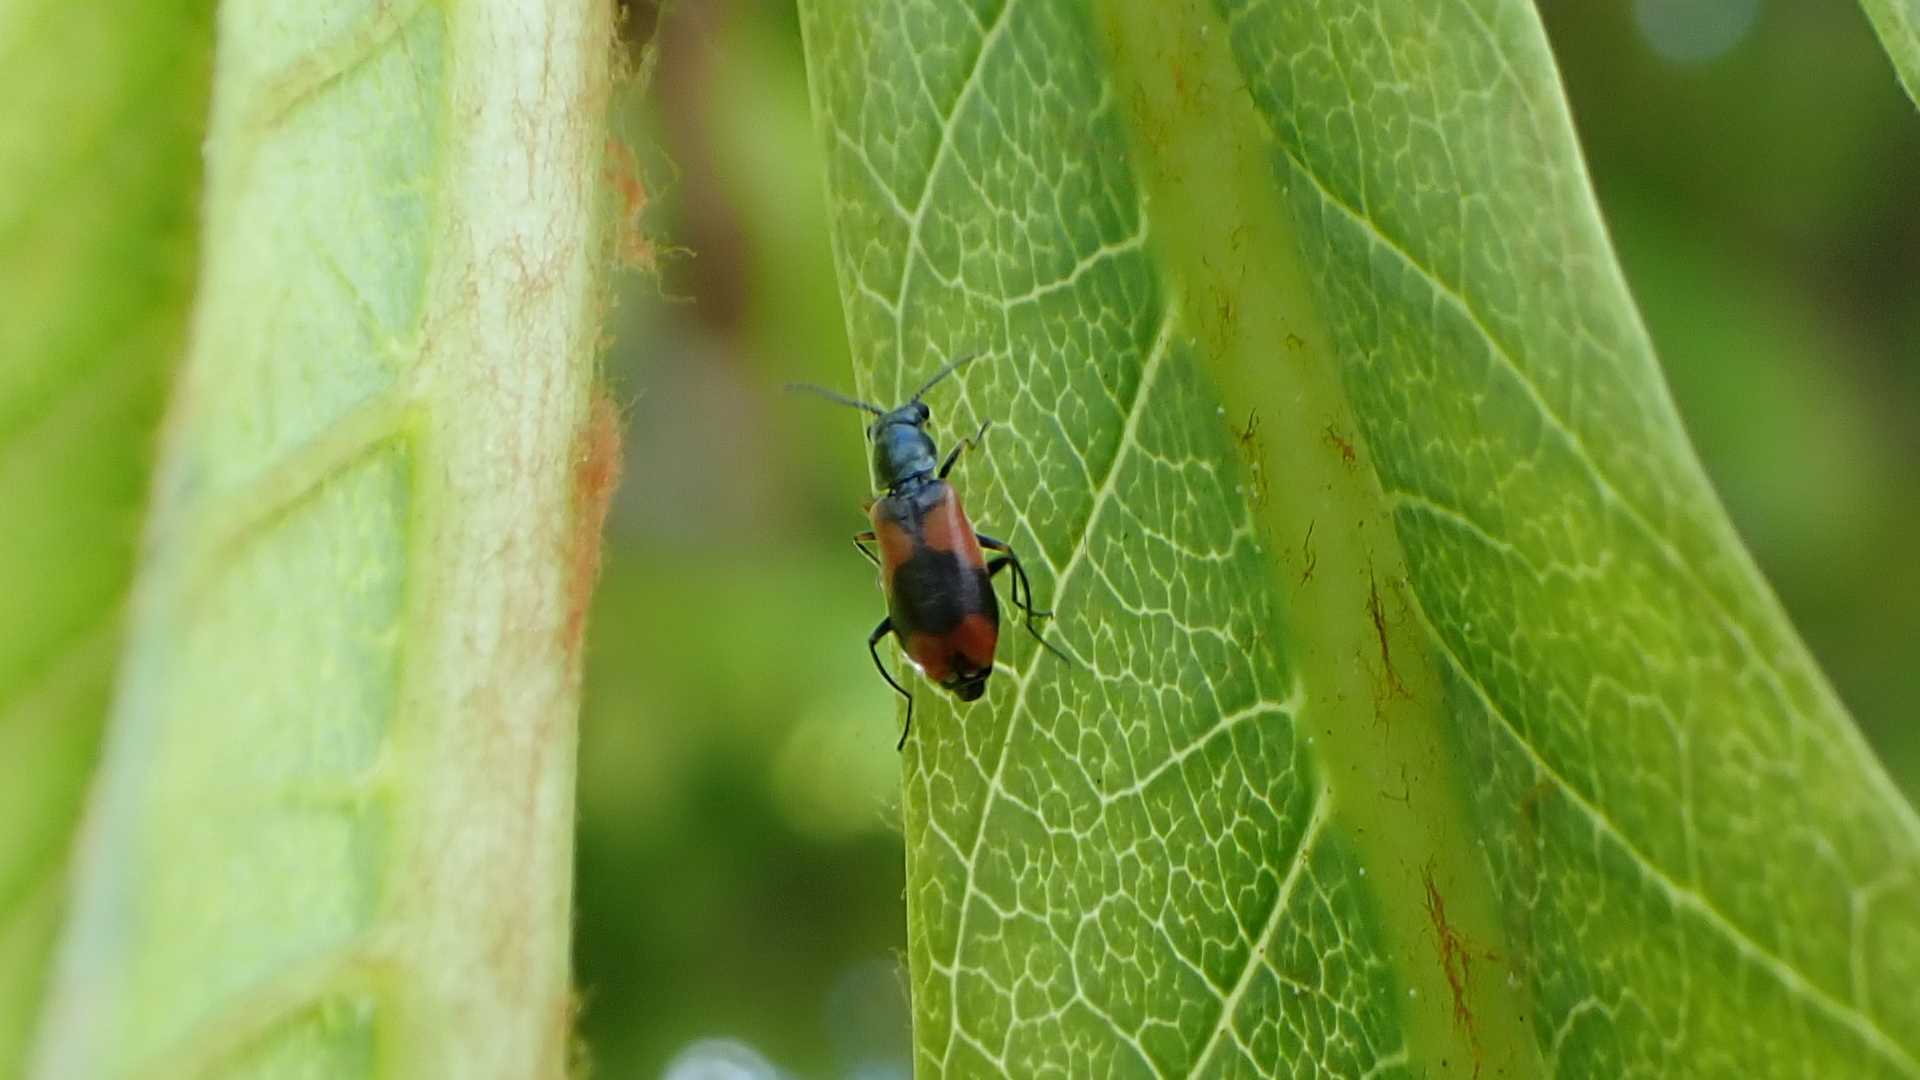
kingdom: Animalia
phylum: Arthropoda
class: Insecta
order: Coleoptera
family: Melyridae
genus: Anthocomus
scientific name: Anthocomus equestris
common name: Black-banded soft-winged flower beetle
